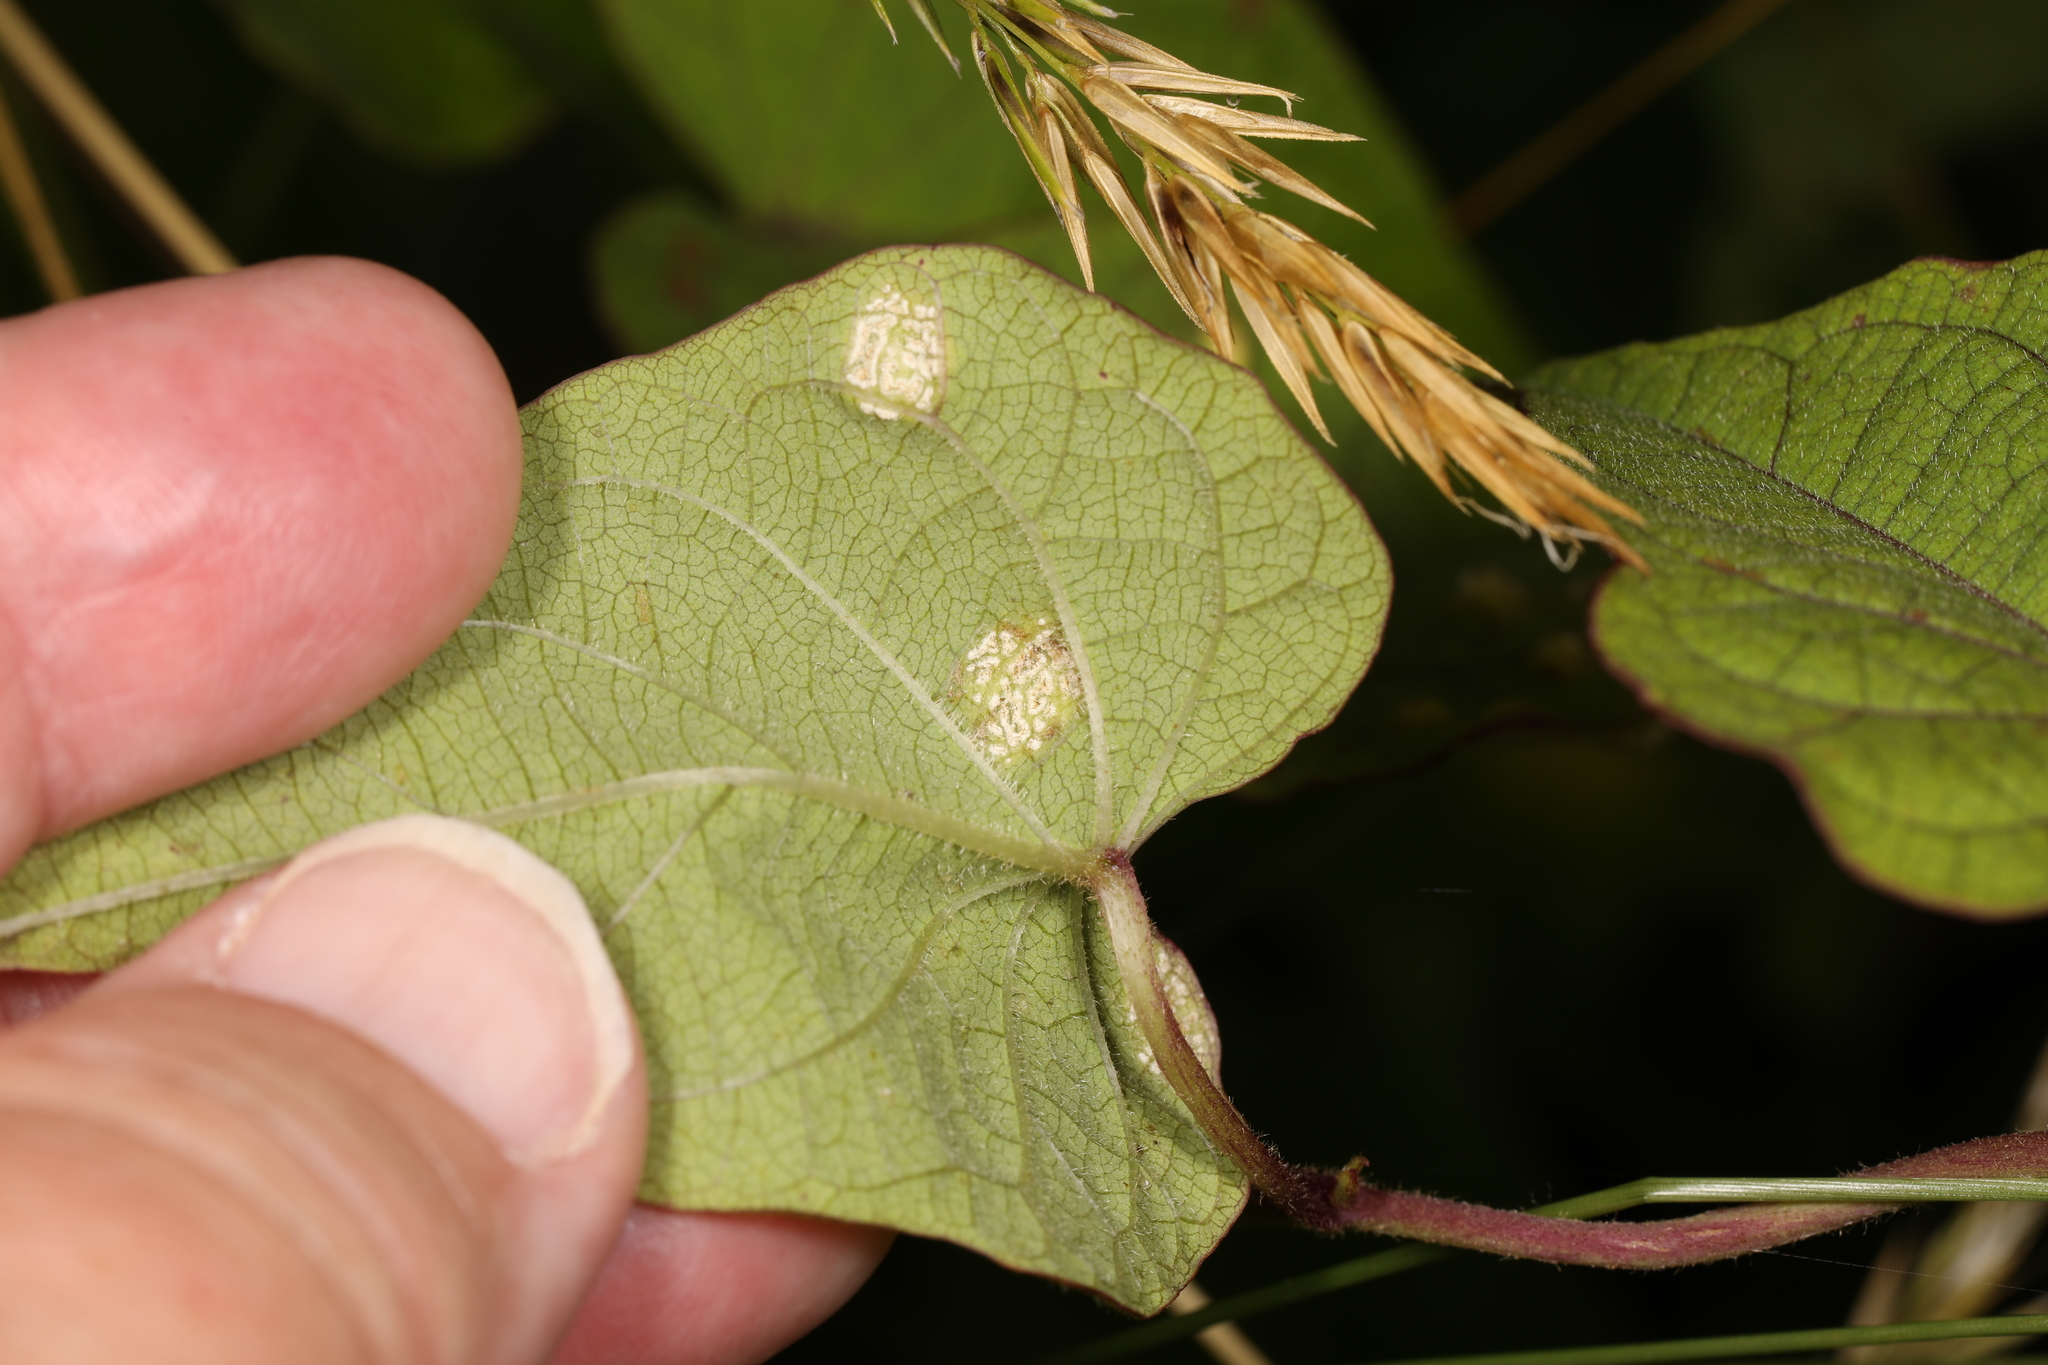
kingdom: Chromista
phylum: Oomycota
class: Peronosporea
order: Albuginales
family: Albuginaceae
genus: Albugo
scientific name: Albugo ipomoeae-panduratae
